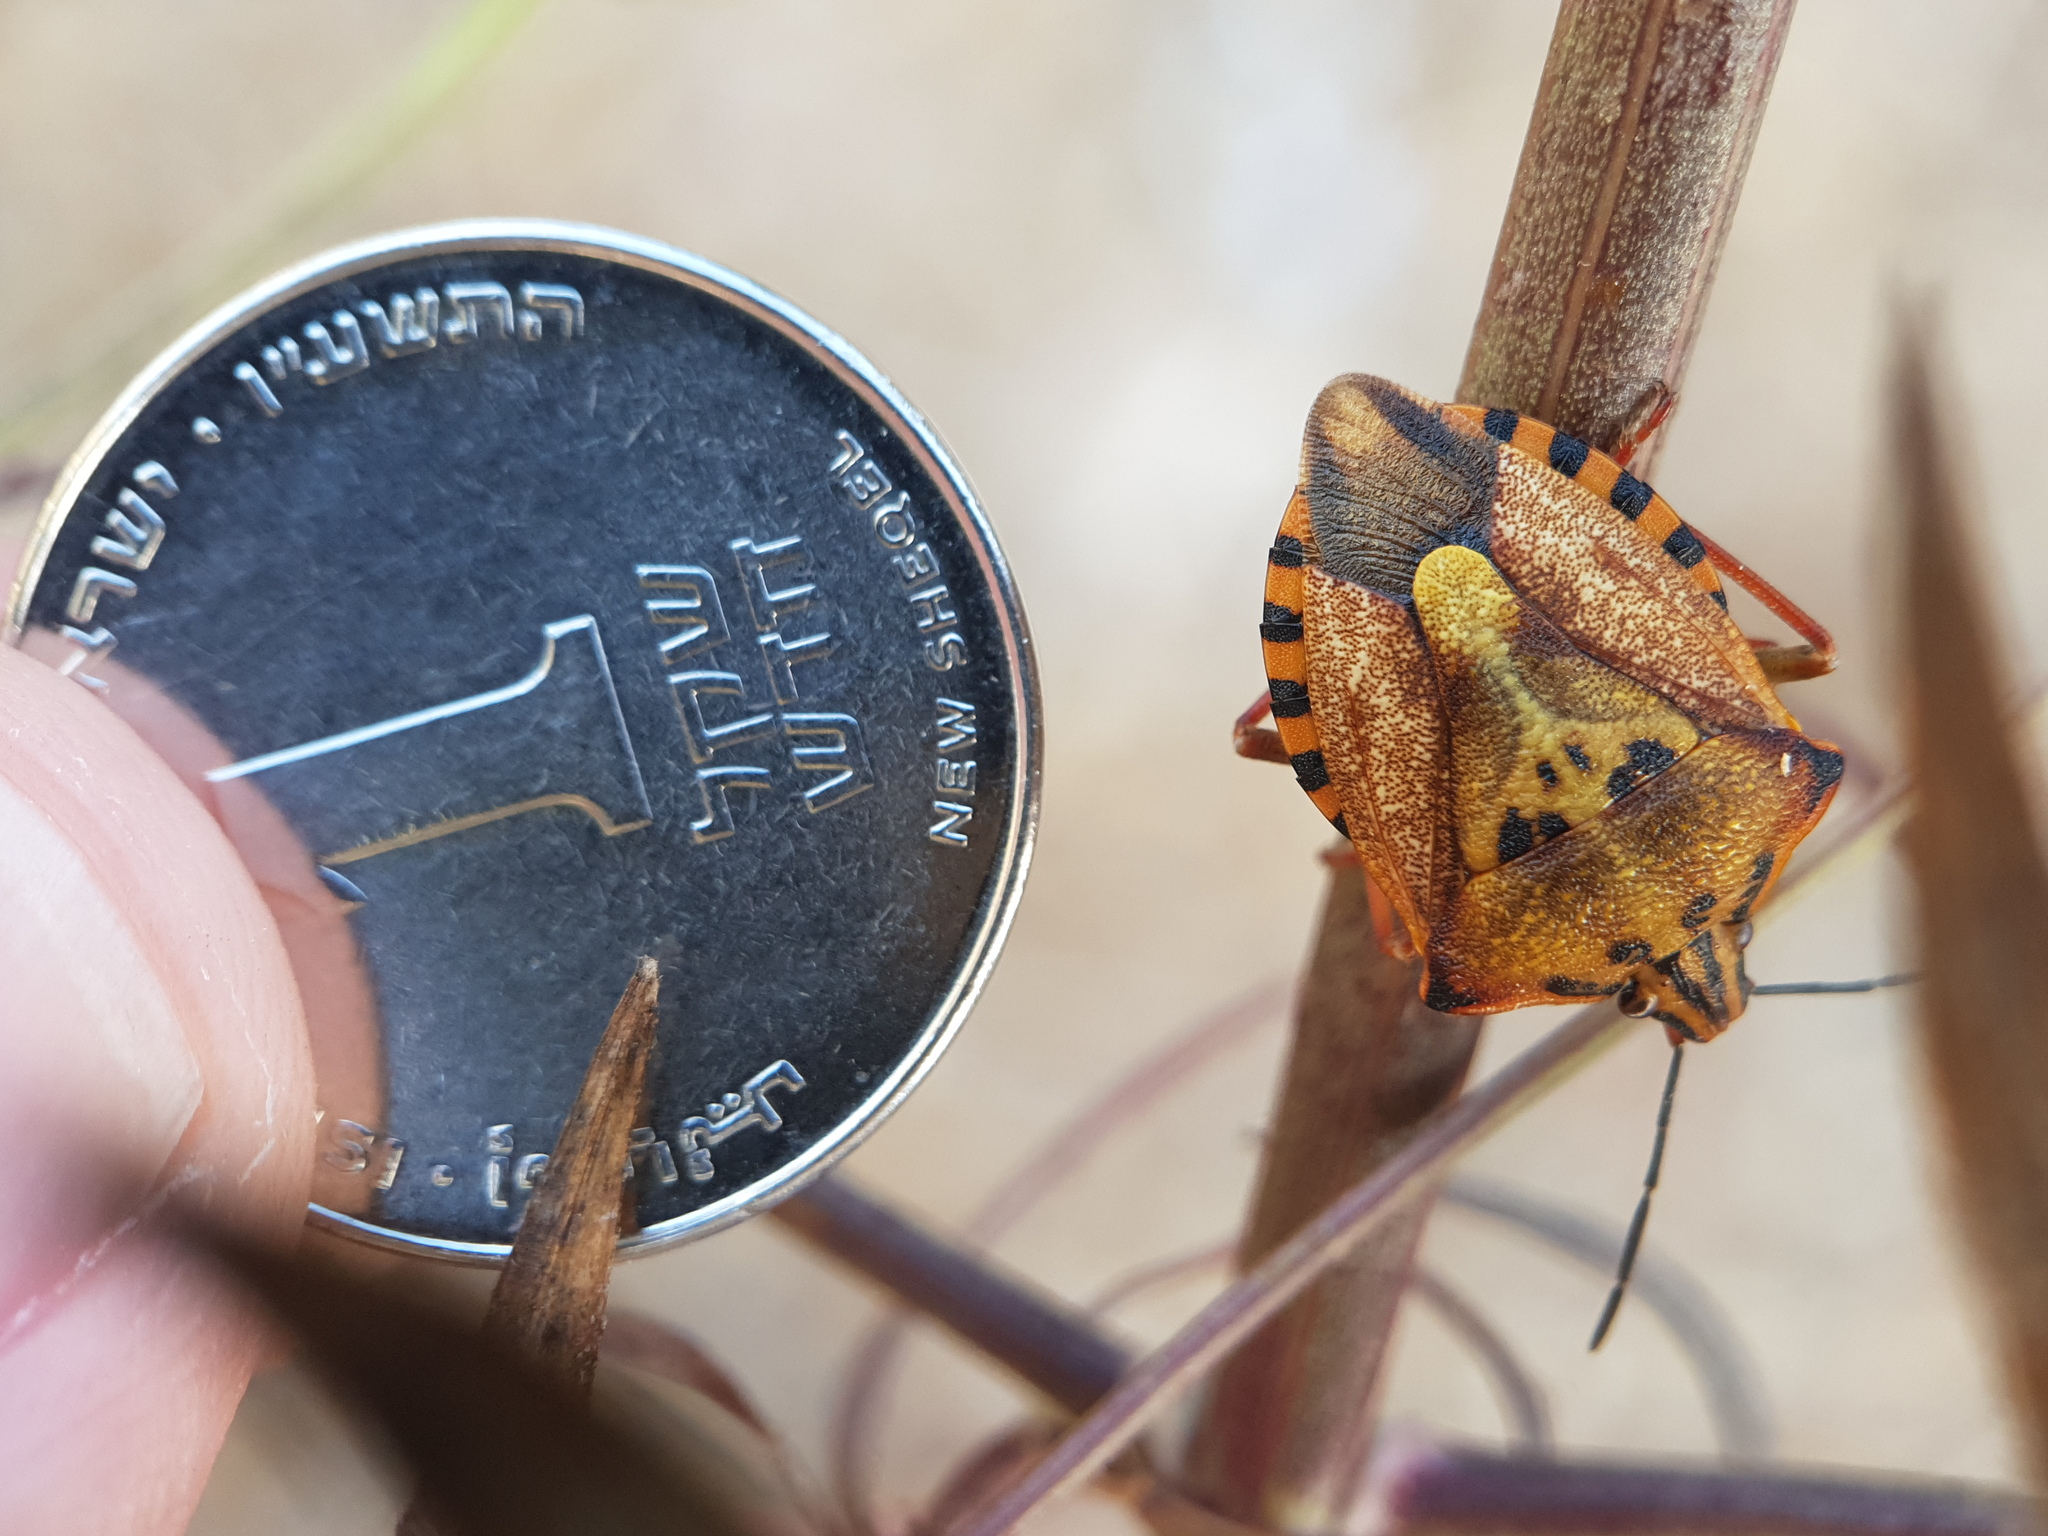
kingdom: Animalia
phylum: Arthropoda
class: Insecta
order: Hemiptera
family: Pentatomidae
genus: Carpocoris
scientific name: Carpocoris mediterraneus
